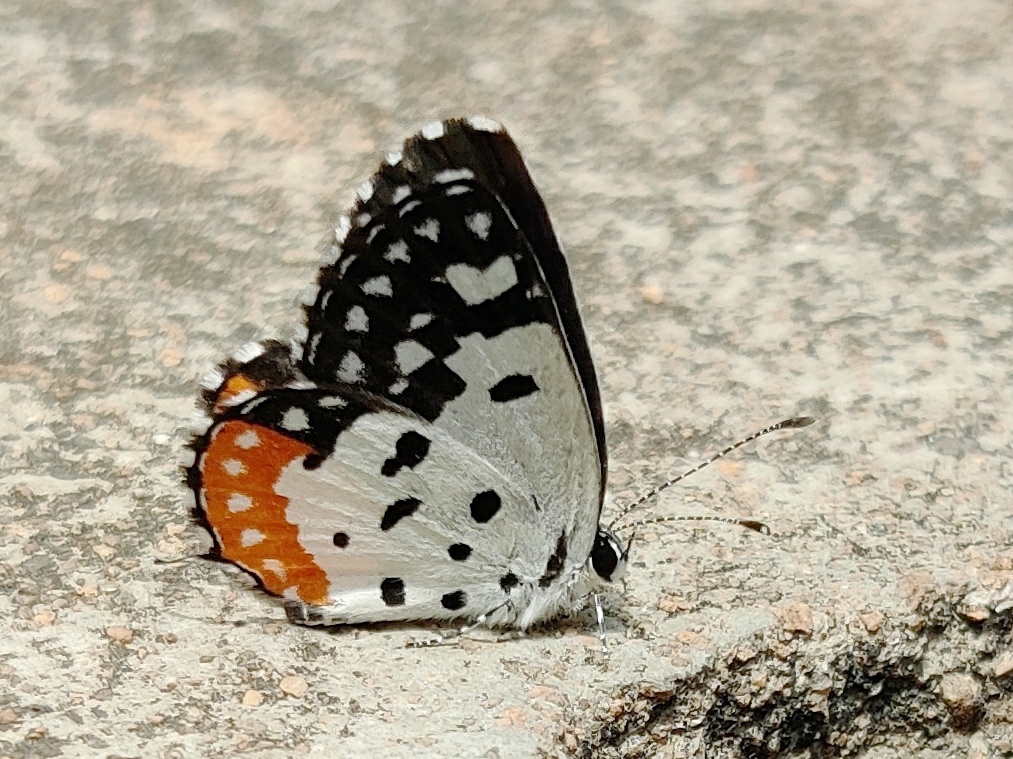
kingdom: Animalia
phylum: Arthropoda
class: Insecta
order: Lepidoptera
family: Lycaenidae
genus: Talicada
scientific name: Talicada nyseus
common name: Red pierrot
